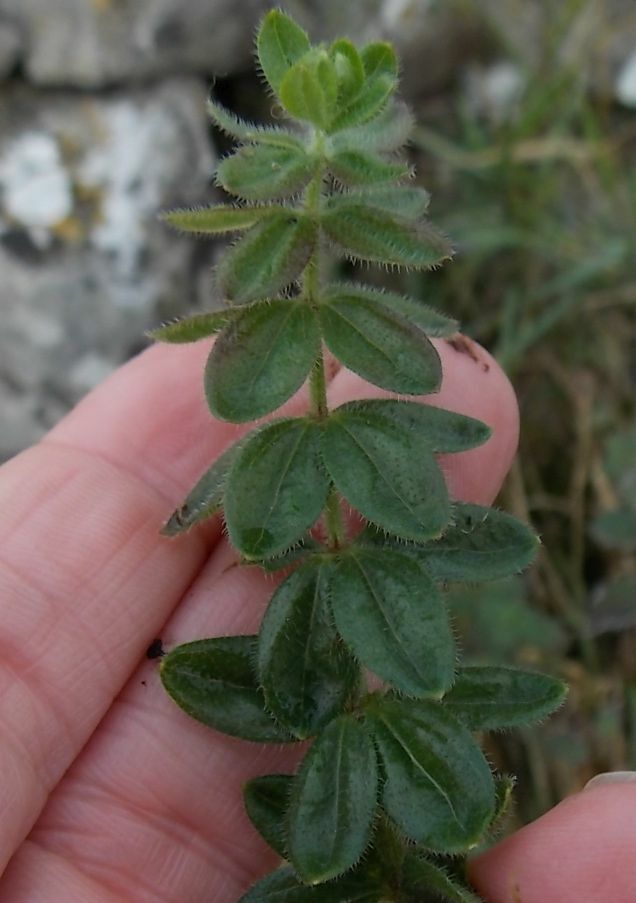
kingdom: Plantae
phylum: Tracheophyta
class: Magnoliopsida
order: Gentianales
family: Rubiaceae
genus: Cruciata
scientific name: Cruciata laevipes
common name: Crosswort
